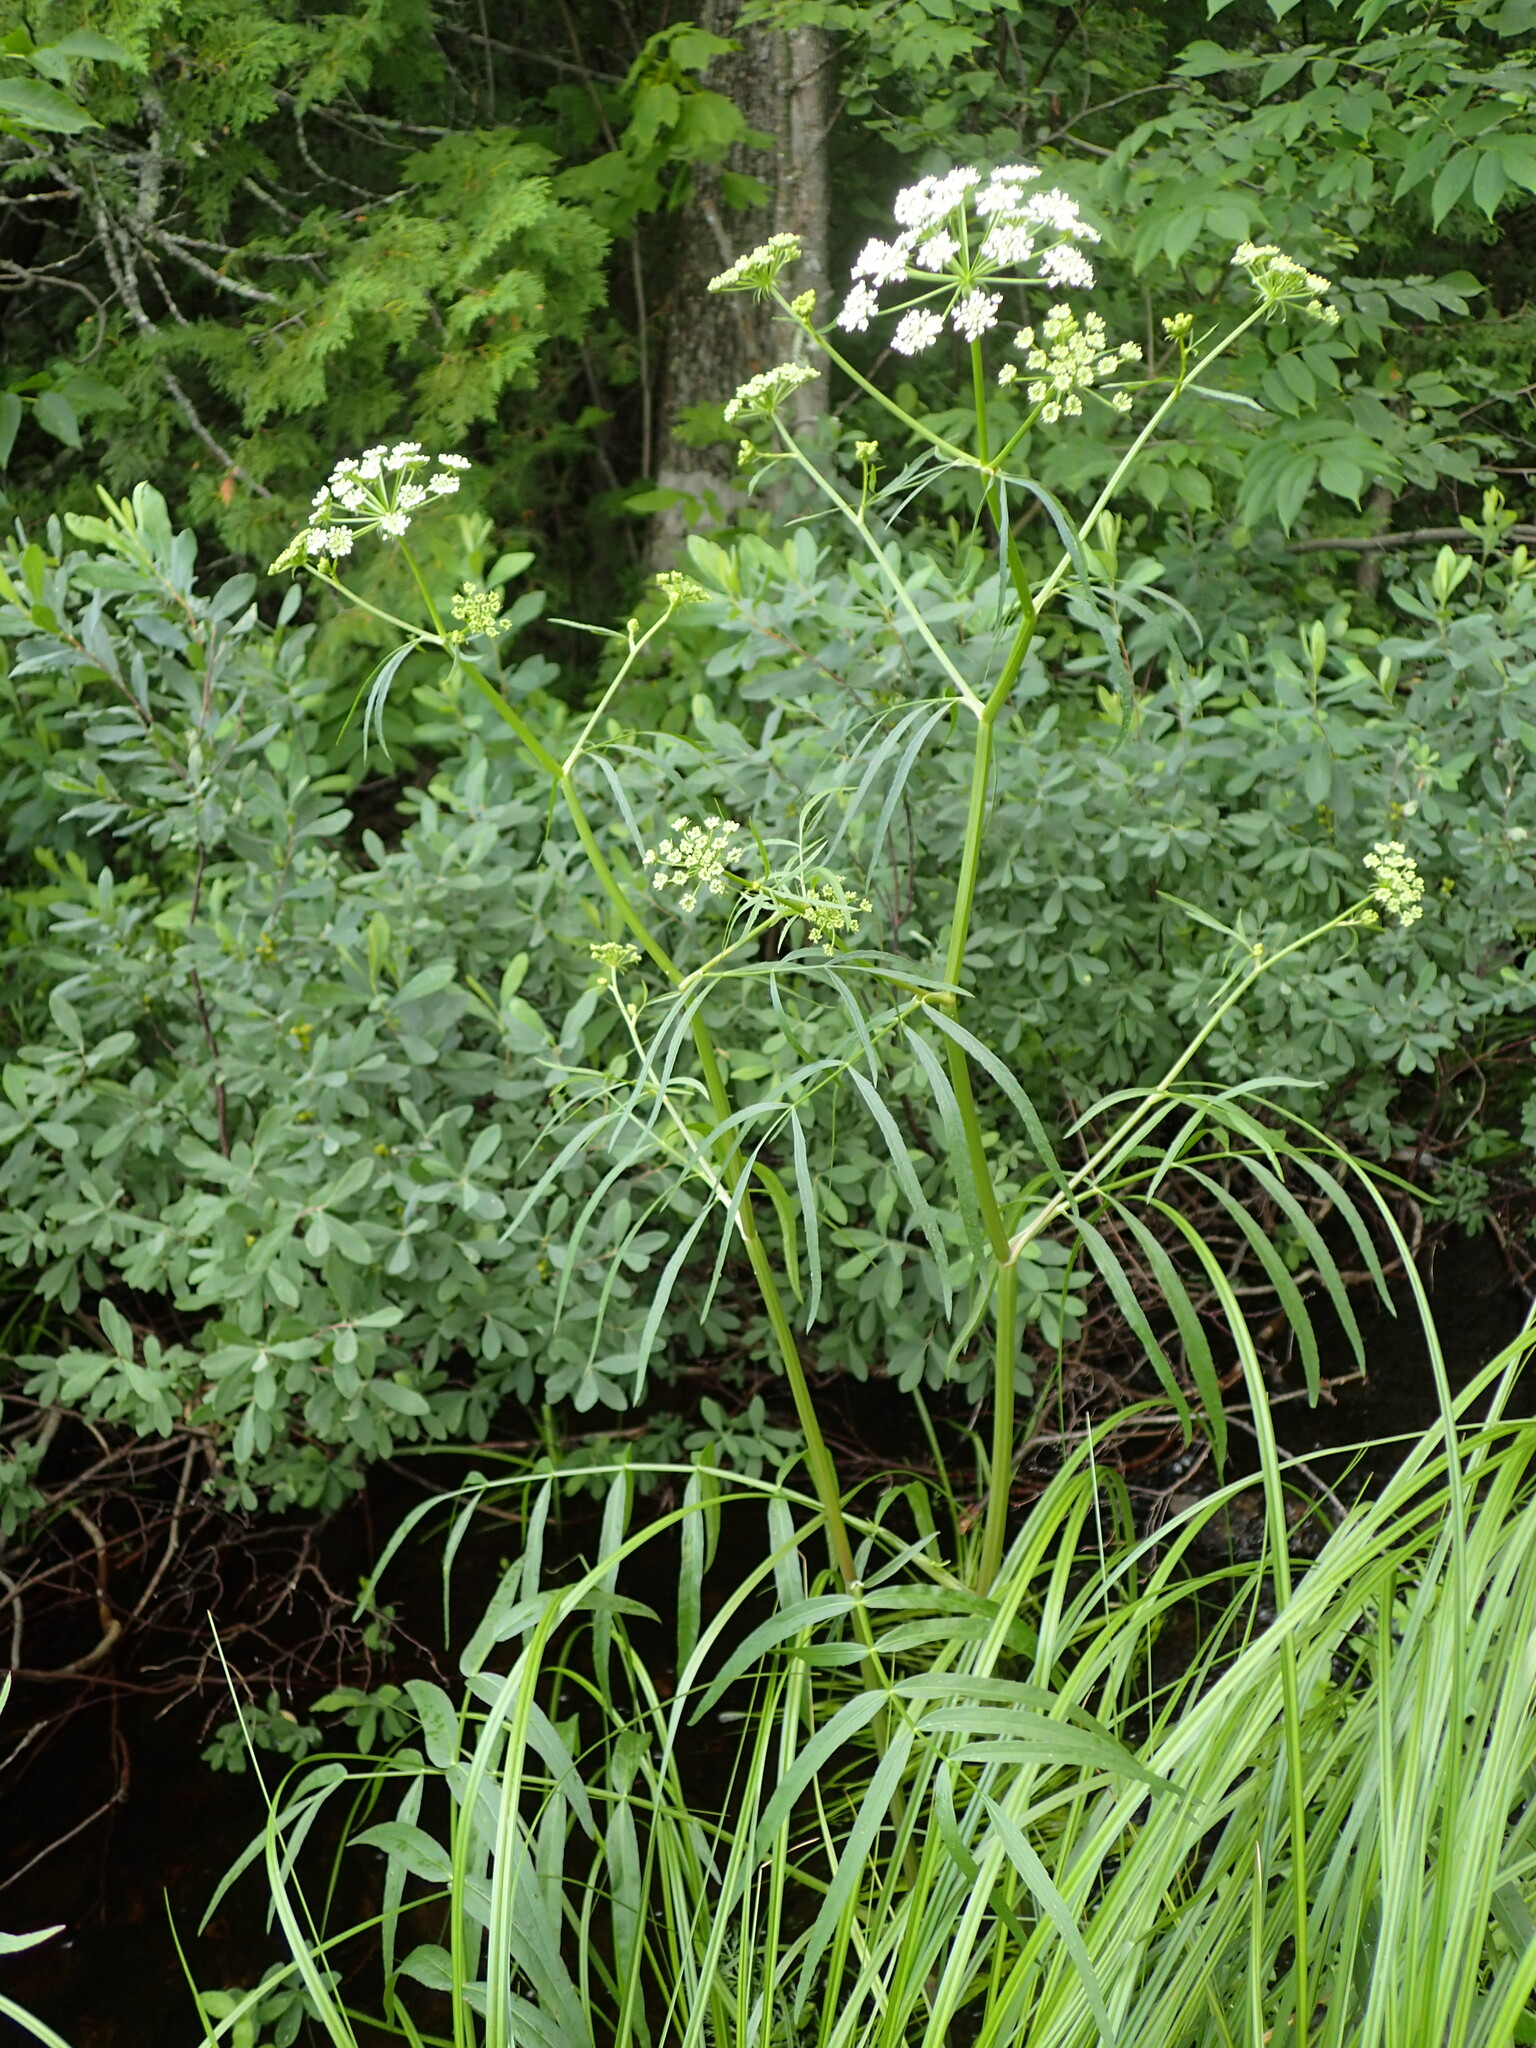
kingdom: Plantae
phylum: Tracheophyta
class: Magnoliopsida
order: Apiales
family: Apiaceae
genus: Sium
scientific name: Sium suave
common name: Hemlock water-parsnip
